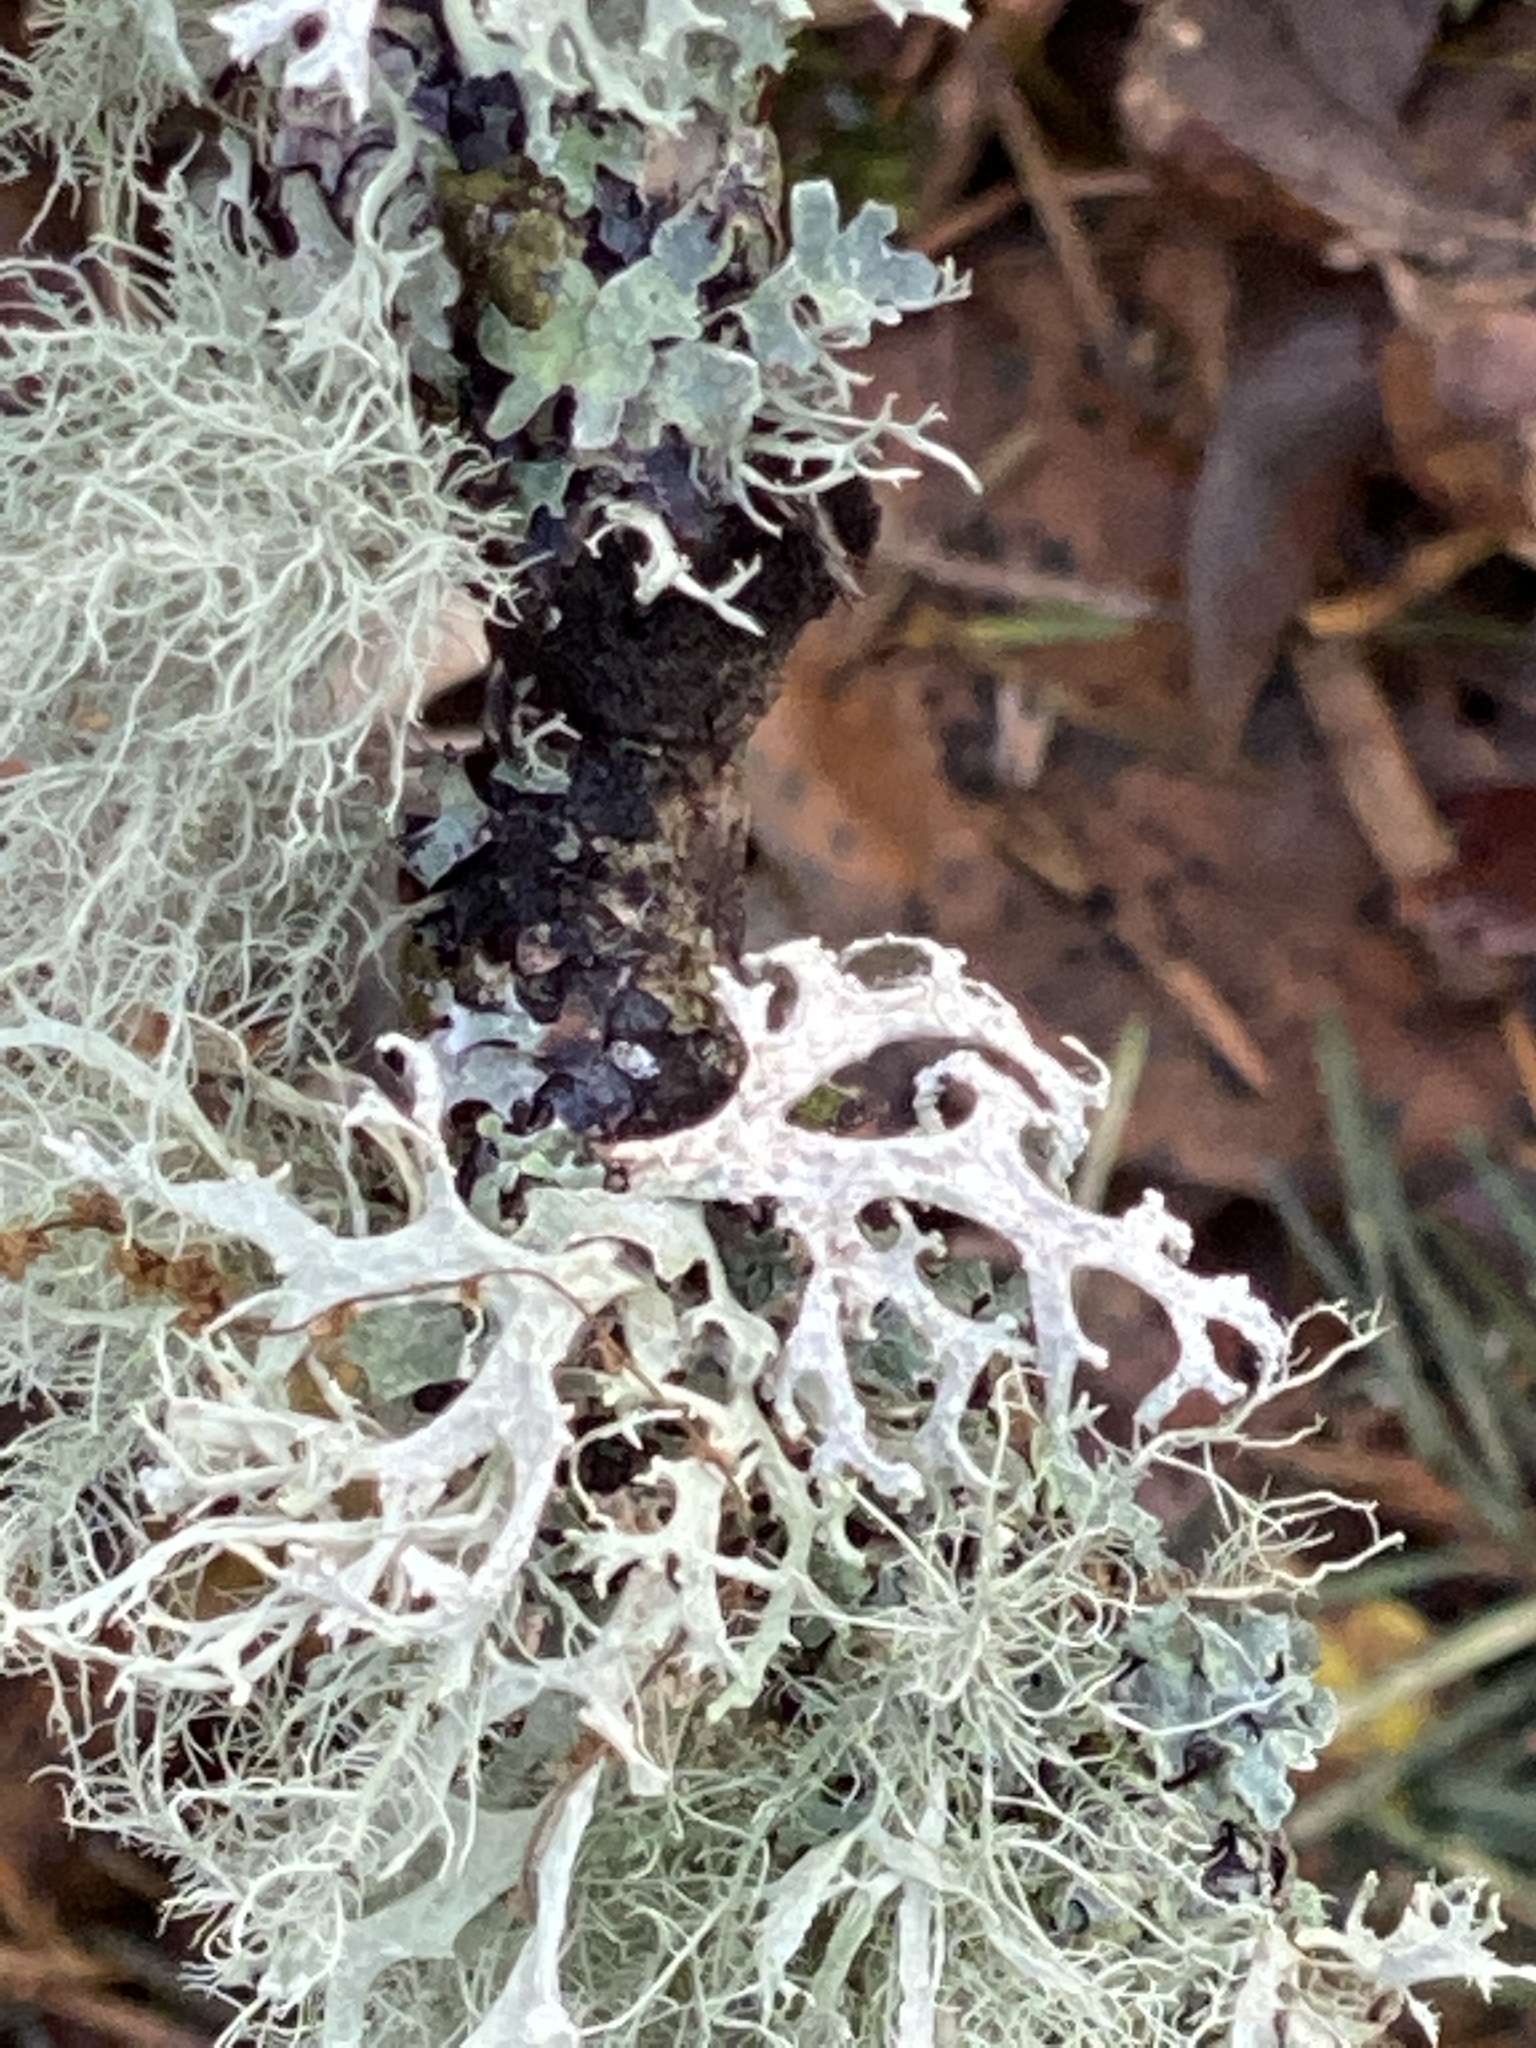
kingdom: Fungi
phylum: Ascomycota
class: Lecanoromycetes
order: Lecanorales
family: Parmeliaceae
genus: Evernia
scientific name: Evernia prunastri
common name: Oak moss
